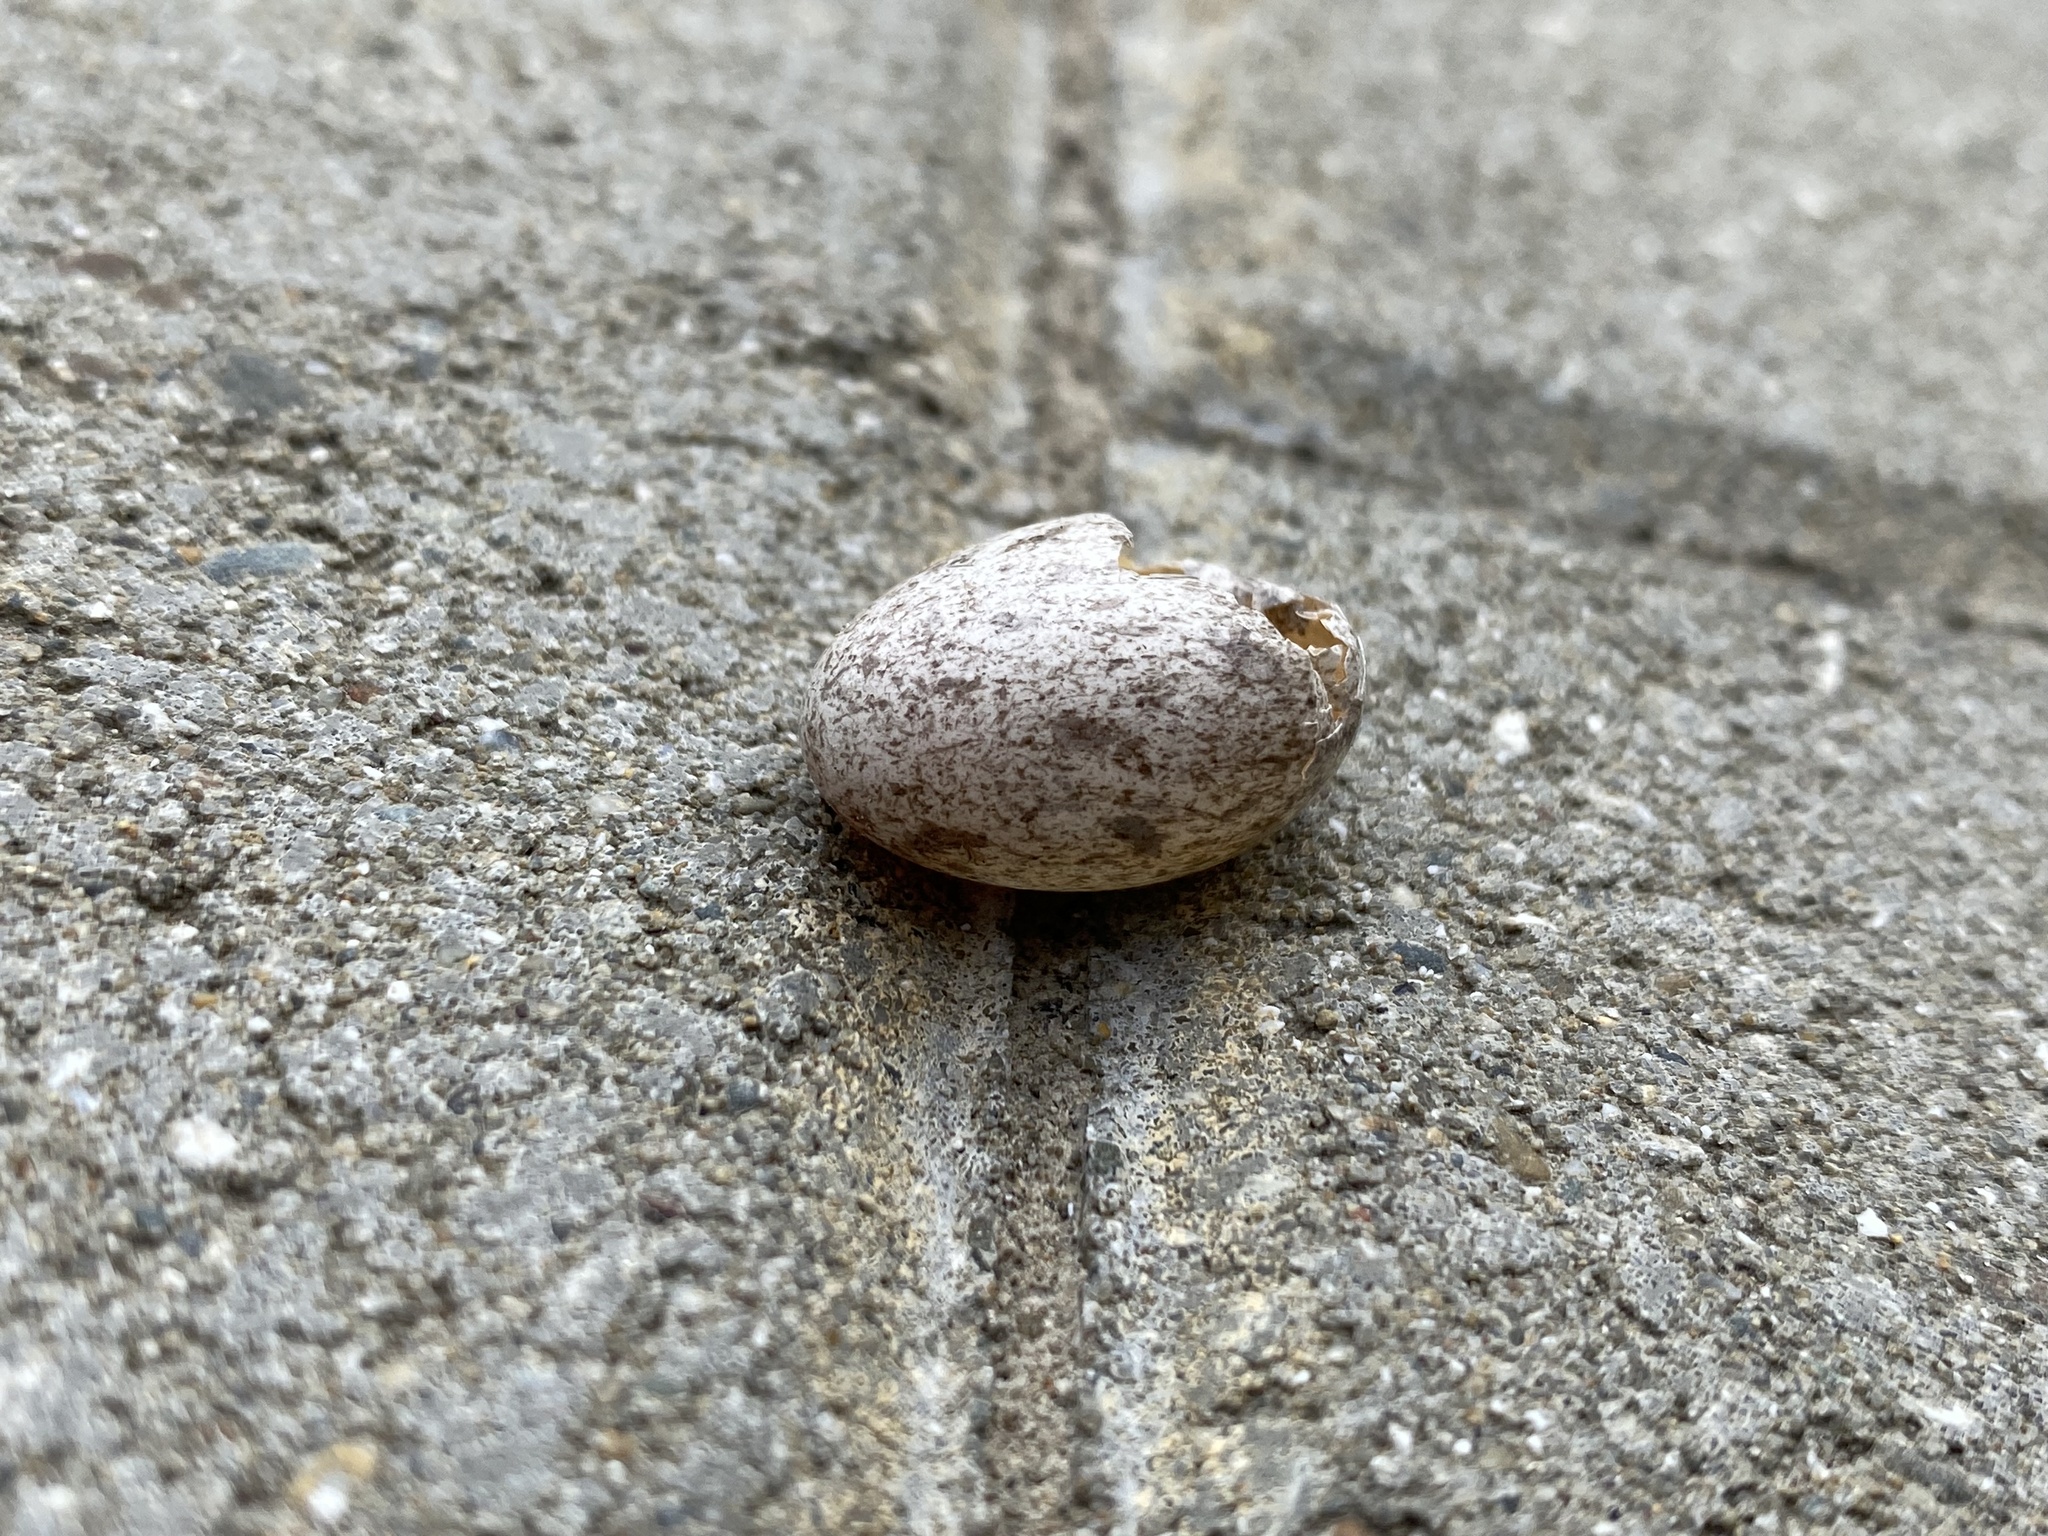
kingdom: Animalia
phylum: Chordata
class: Aves
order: Passeriformes
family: Passeridae
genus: Passer
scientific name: Passer domesticus
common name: House sparrow
